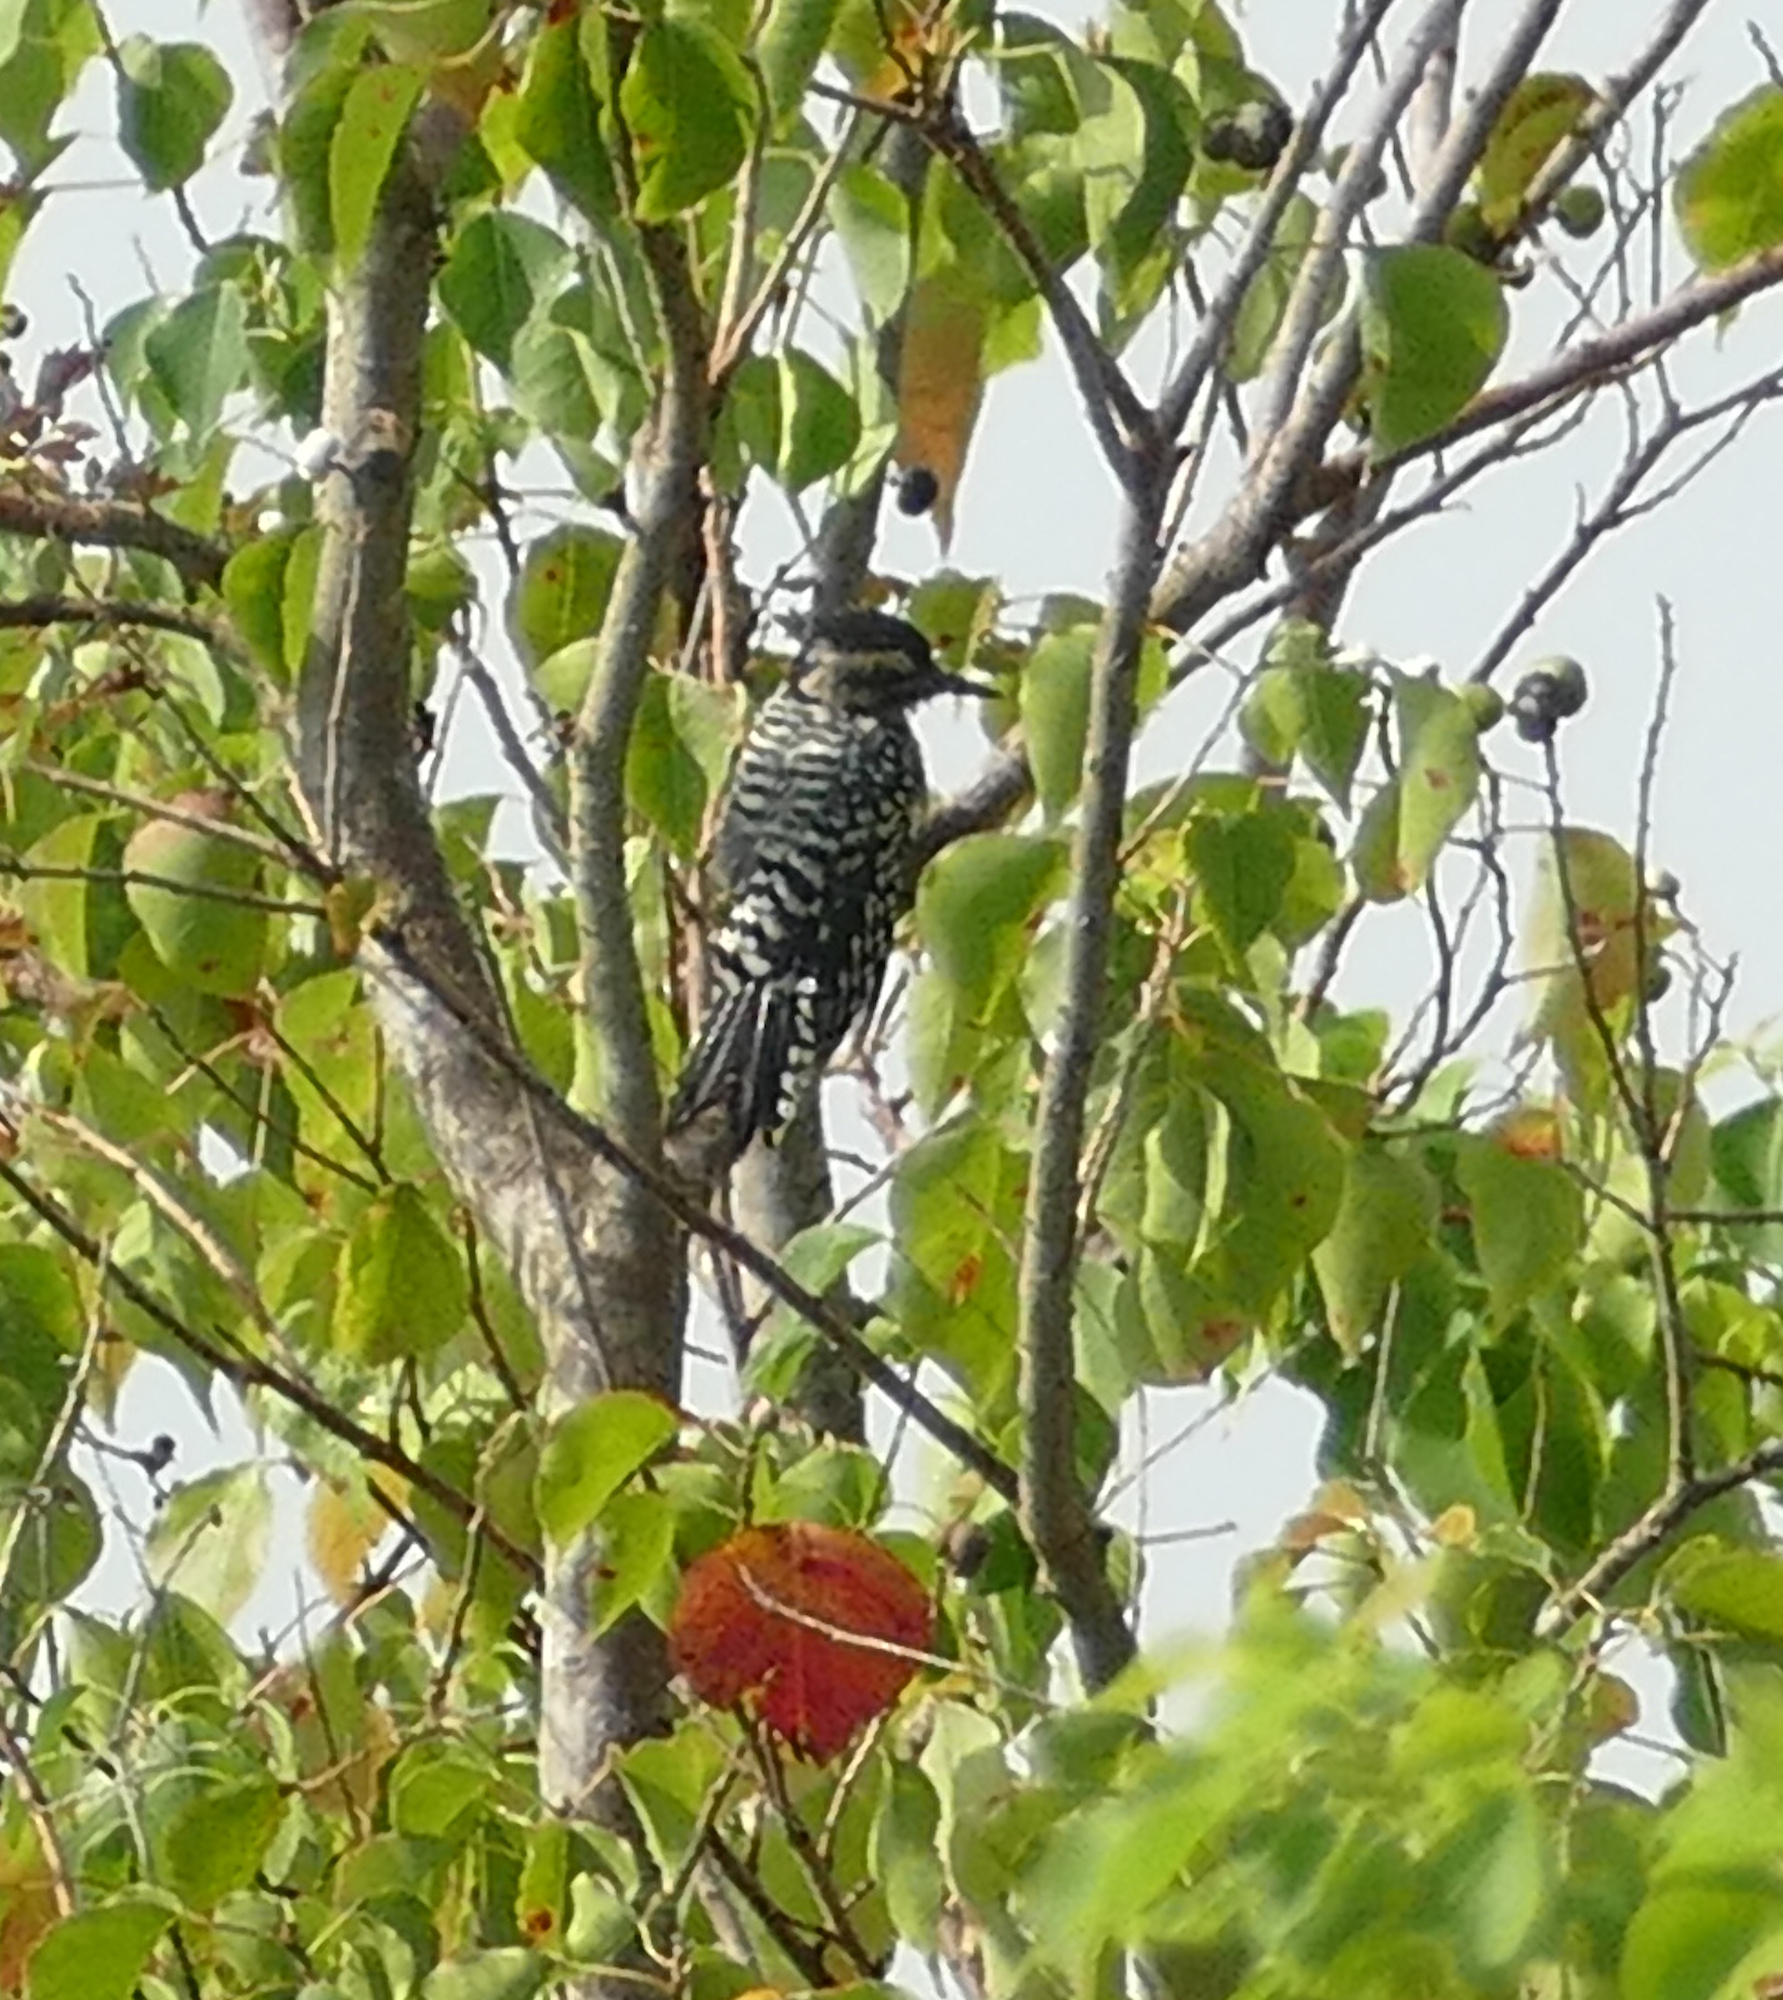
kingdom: Animalia
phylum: Chordata
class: Aves
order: Piciformes
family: Picidae
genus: Dryobates
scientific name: Dryobates scalaris
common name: Ladder-backed woodpecker
